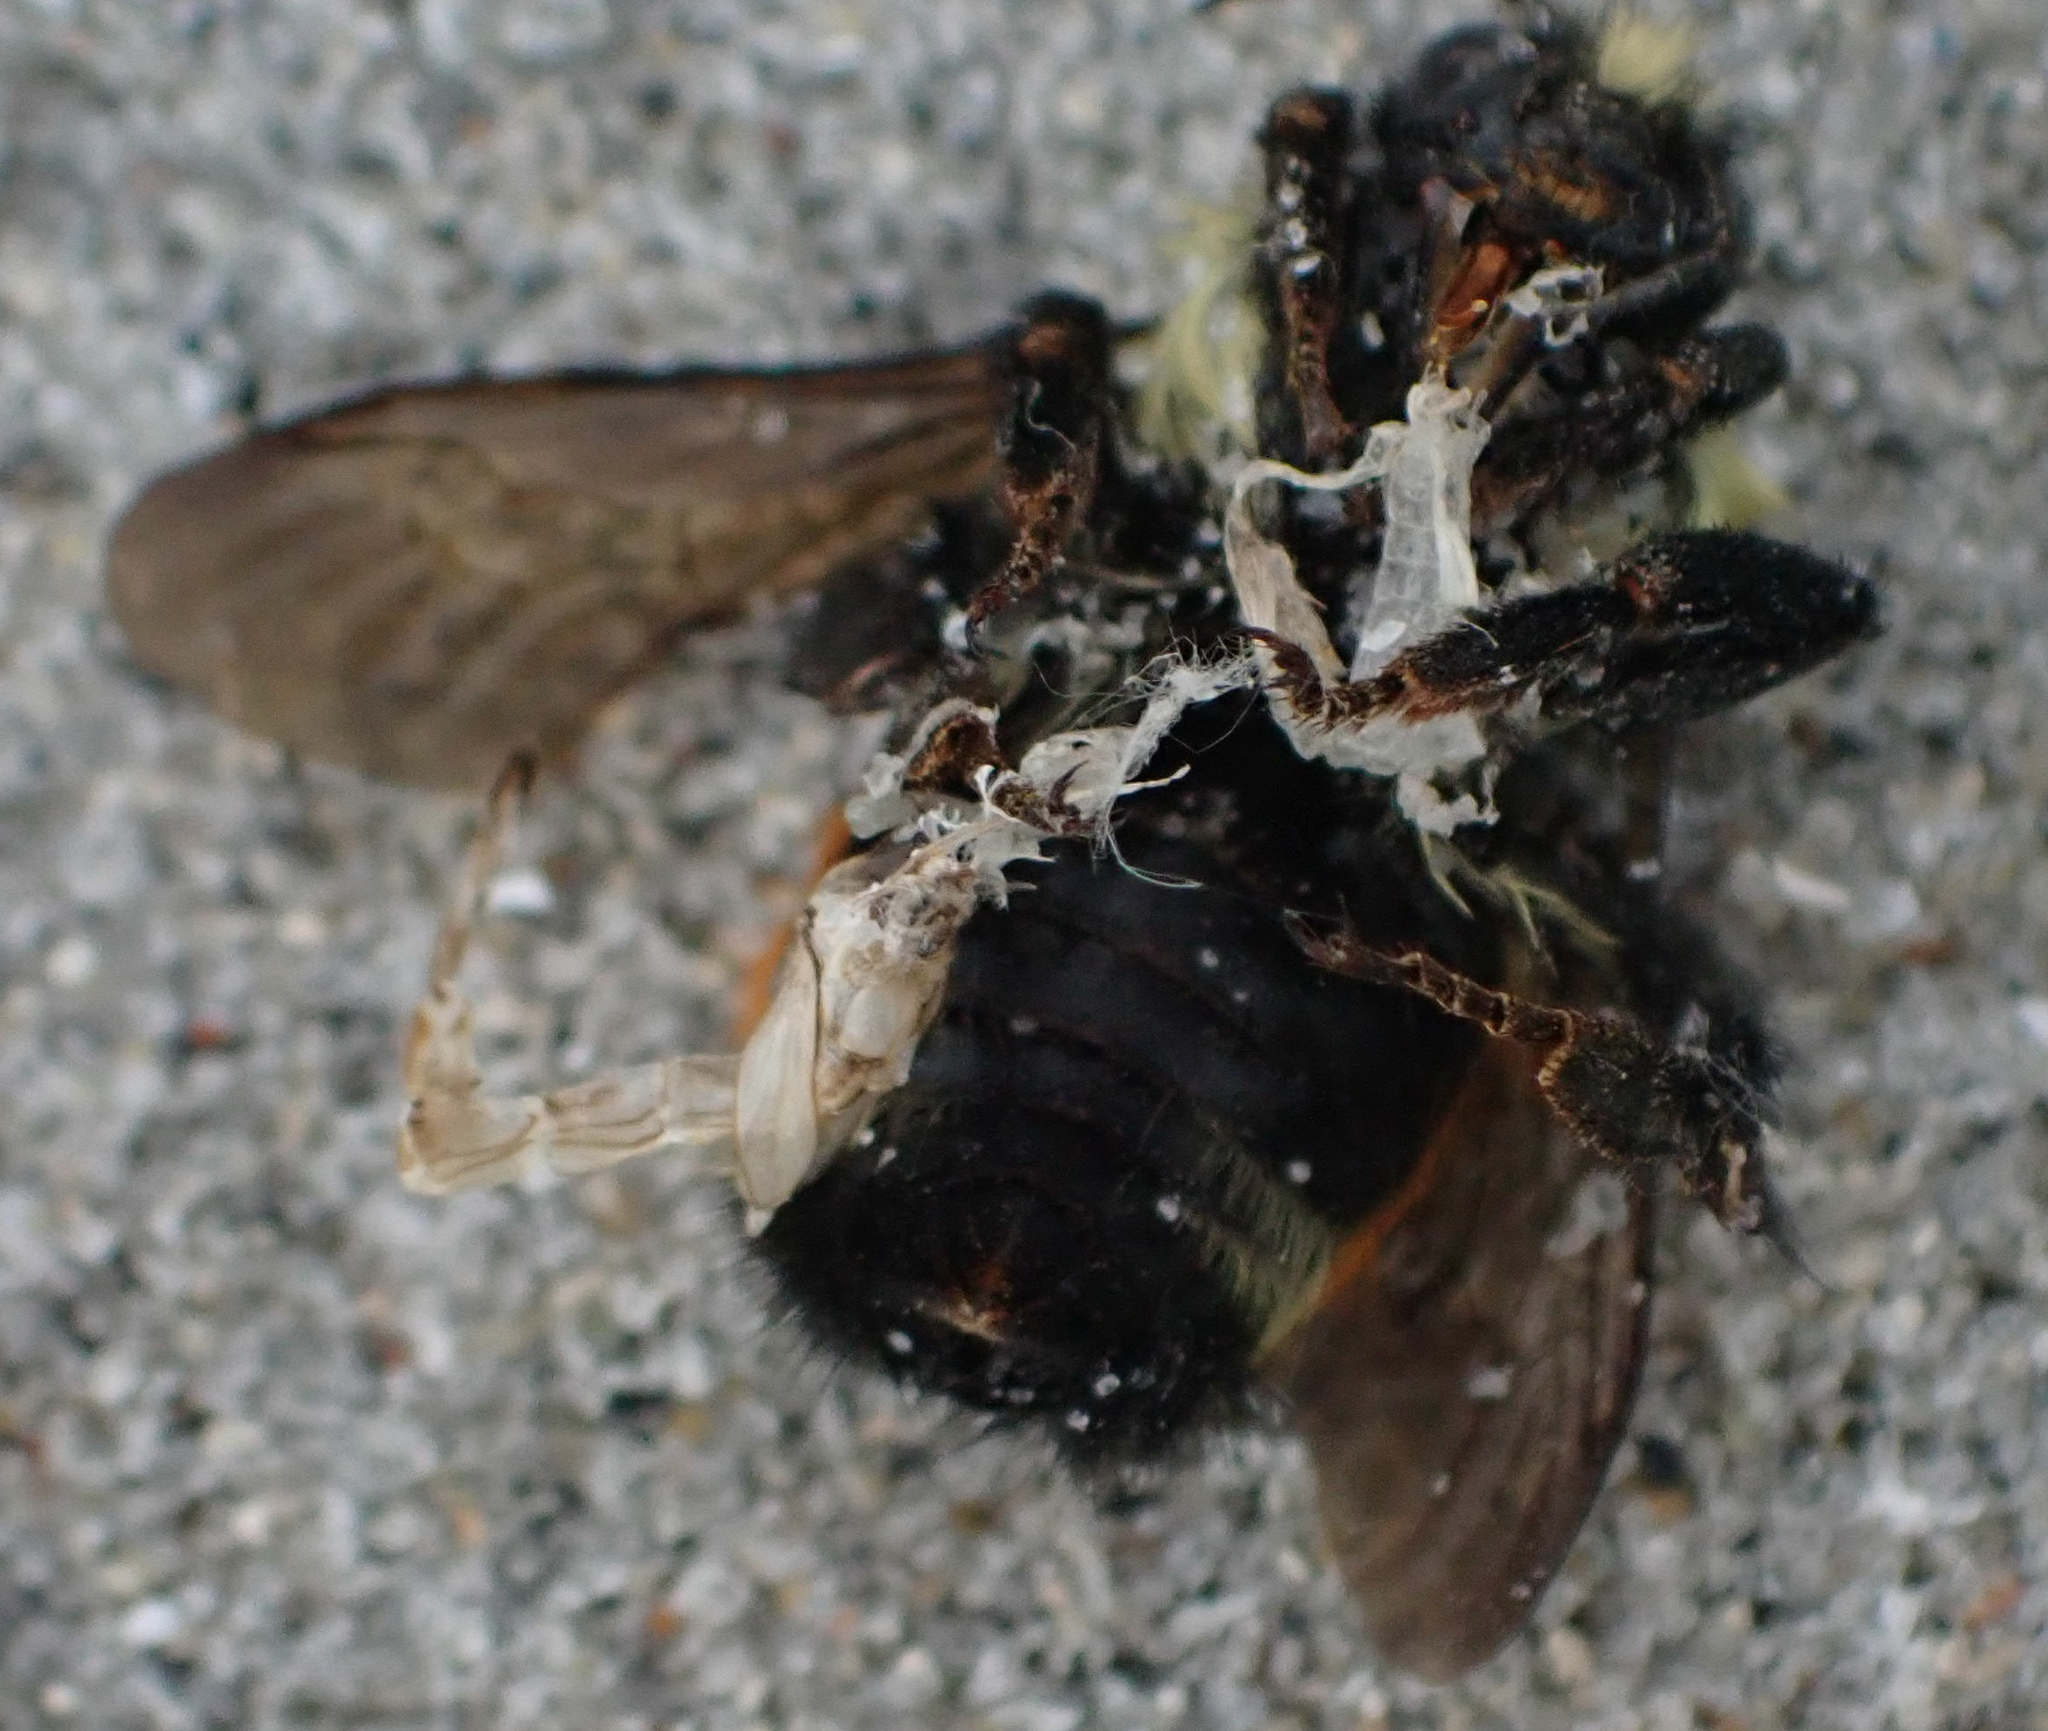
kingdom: Animalia
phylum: Arthropoda
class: Insecta
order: Hymenoptera
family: Apidae
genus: Bombus
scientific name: Bombus ternarius
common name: Tri-colored bumble bee
